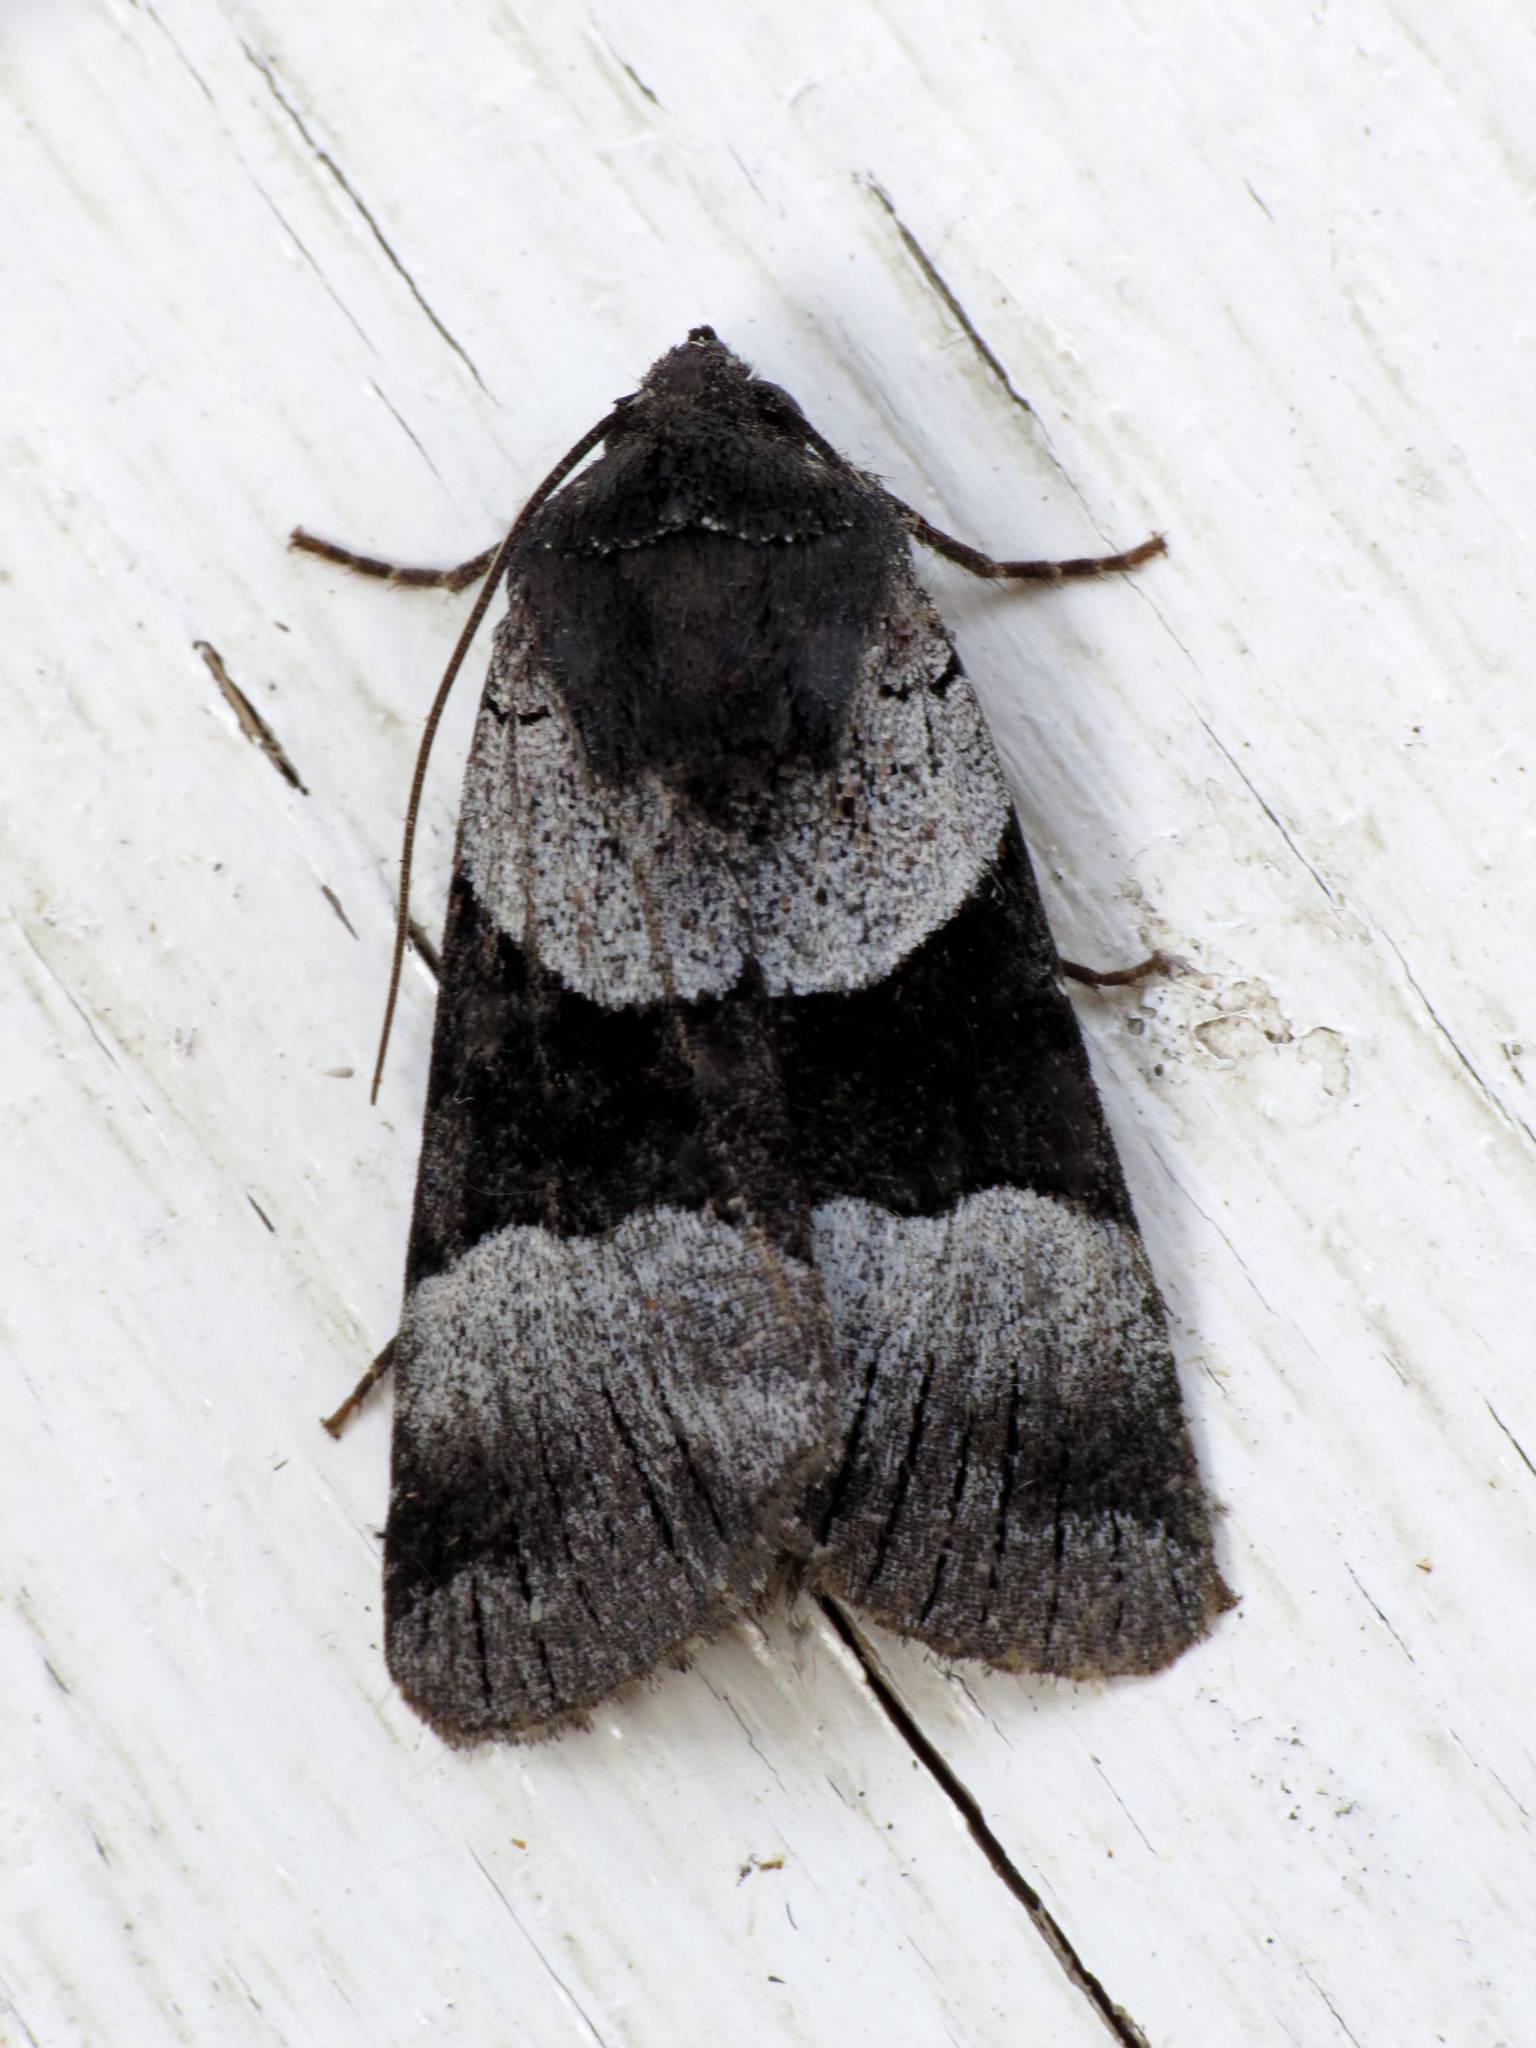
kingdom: Animalia
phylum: Arthropoda
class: Insecta
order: Lepidoptera
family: Noctuidae
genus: Sympistis
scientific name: Sympistis piffardi
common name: Three-striped oncocnemis
